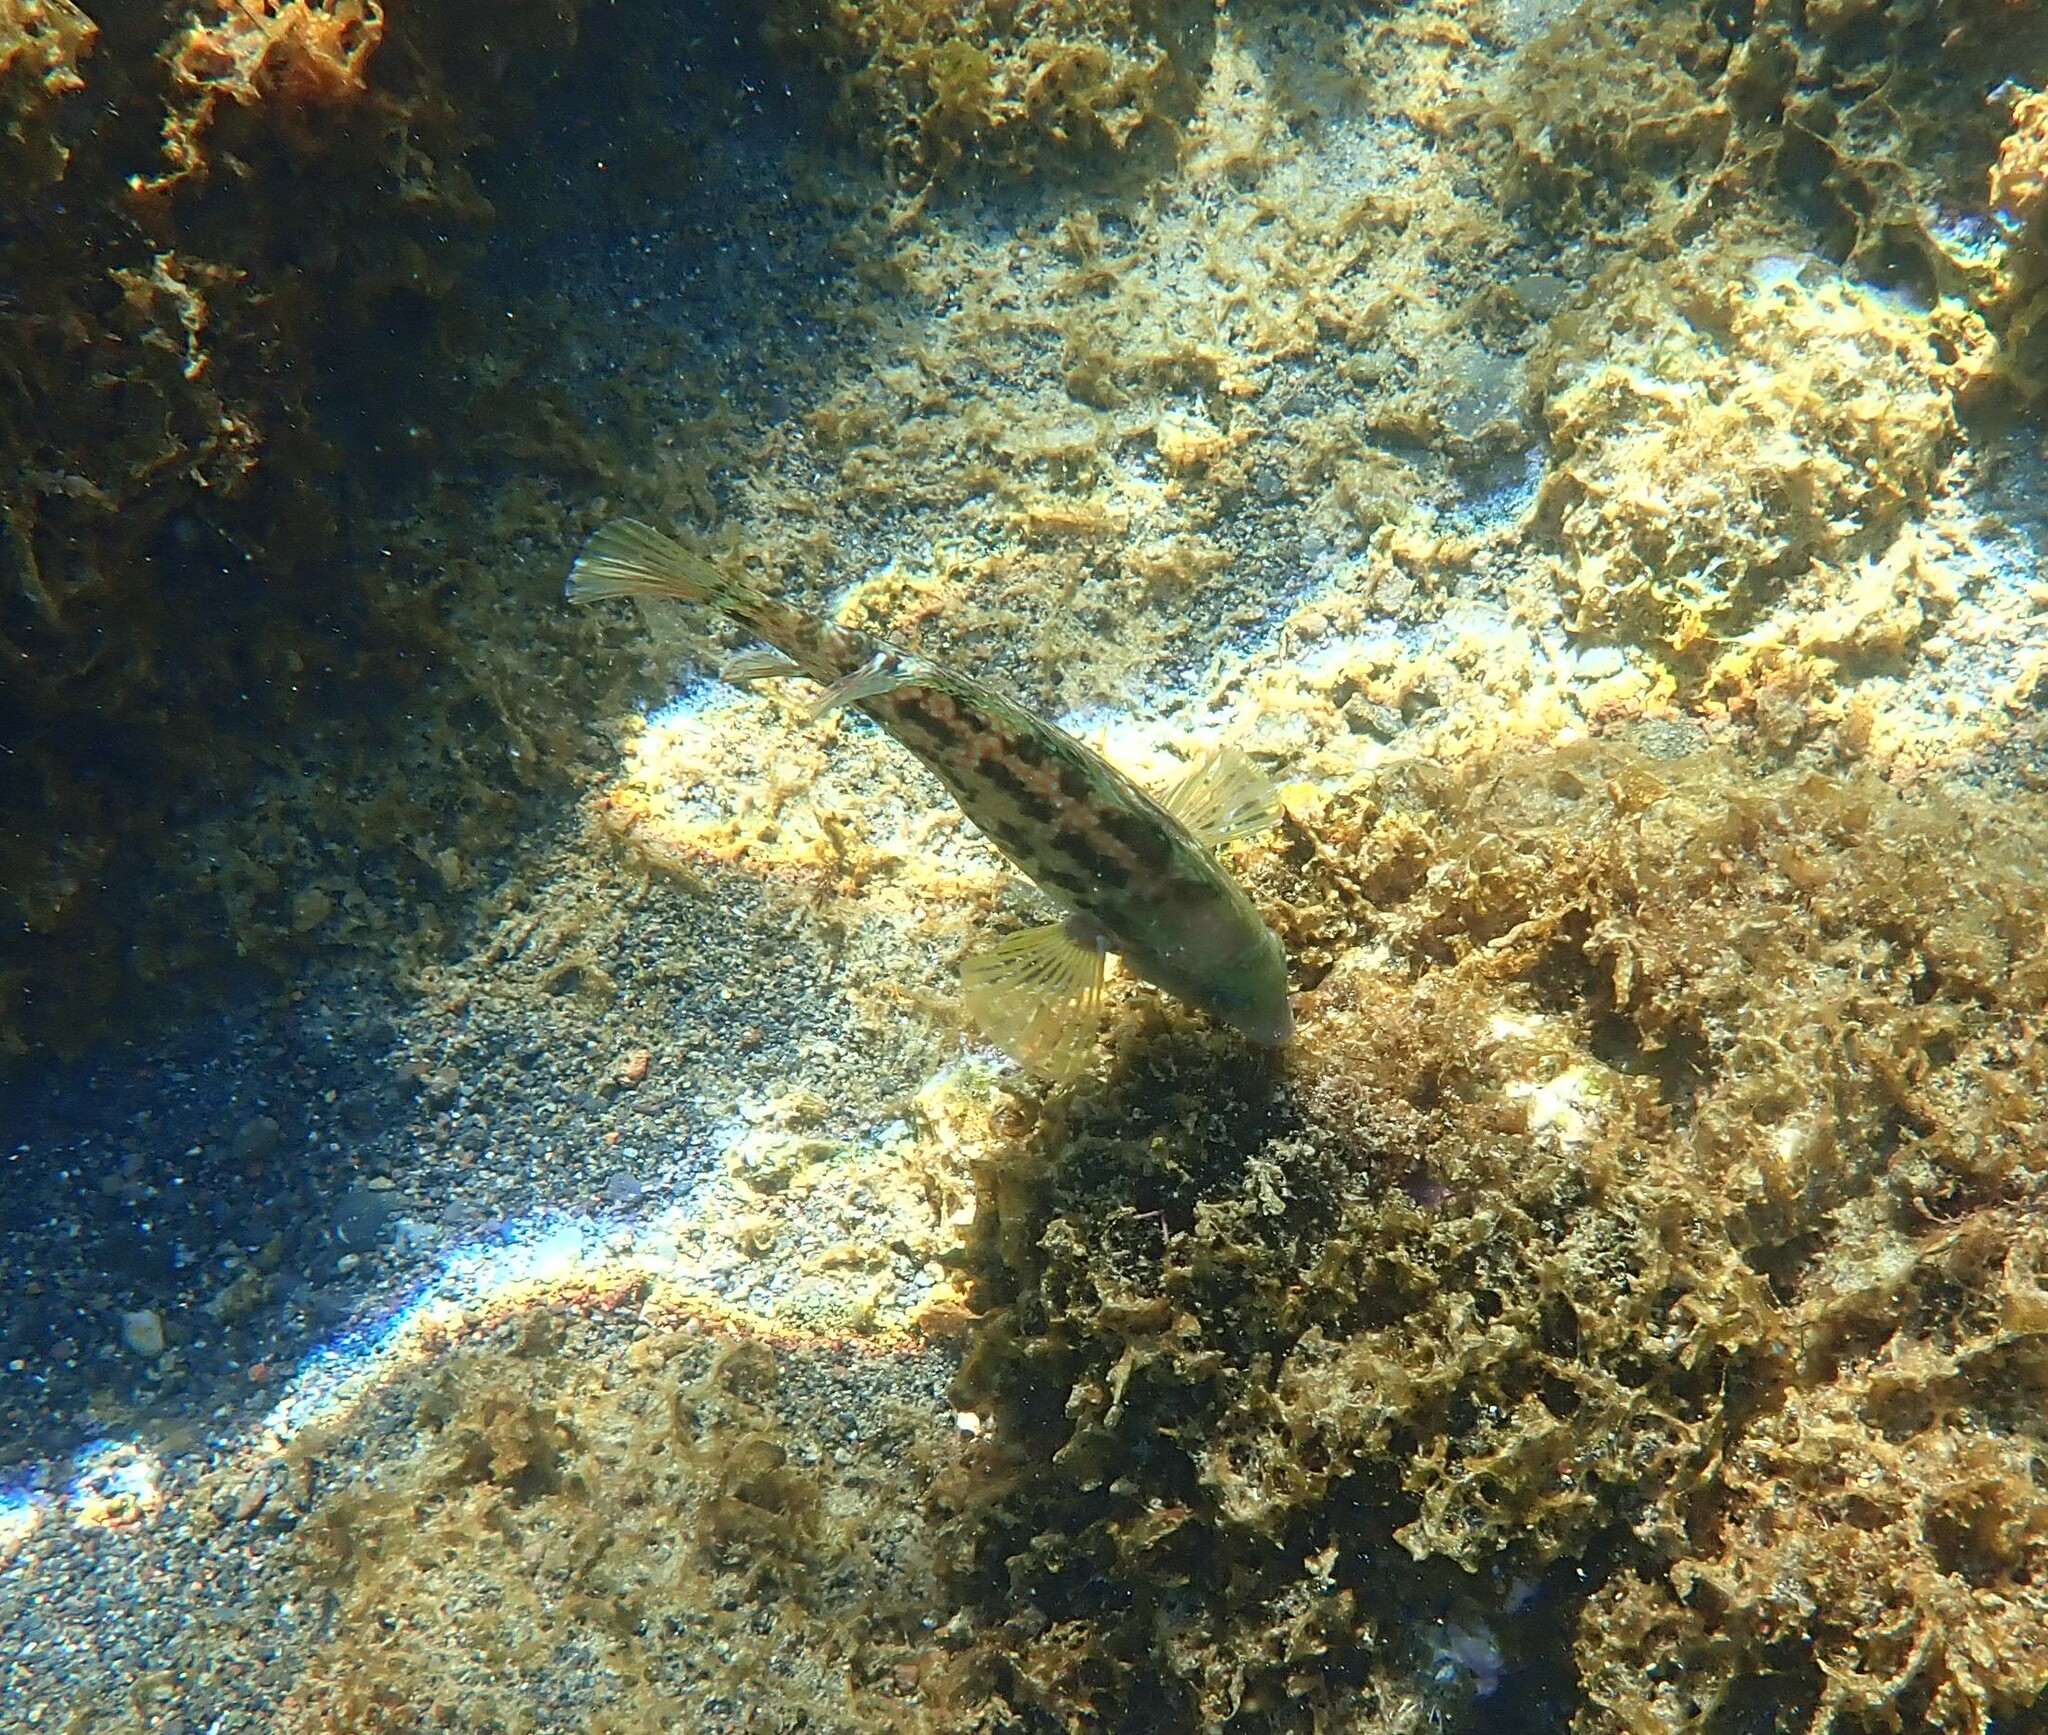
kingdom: Animalia
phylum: Chordata
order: Perciformes
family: Labridae
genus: Symphodus
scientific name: Symphodus caeruleus
